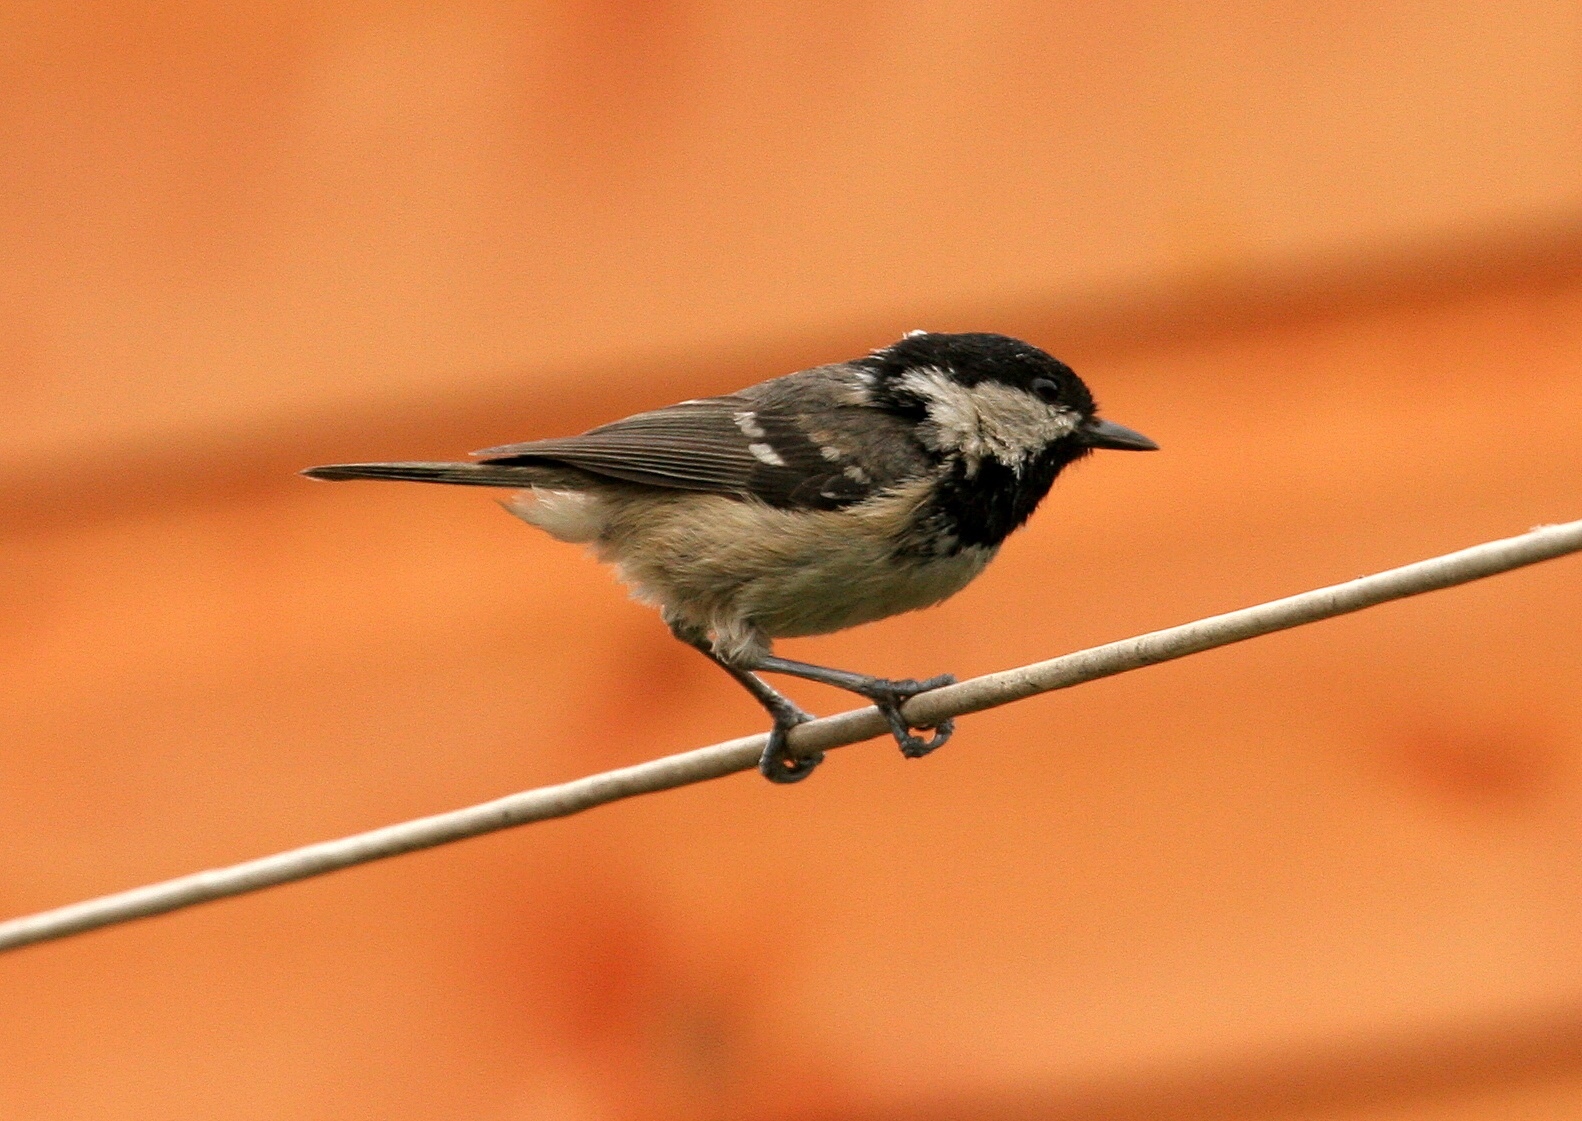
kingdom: Animalia
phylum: Chordata
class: Aves
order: Passeriformes
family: Paridae
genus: Periparus
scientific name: Periparus ater
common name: Coal tit
